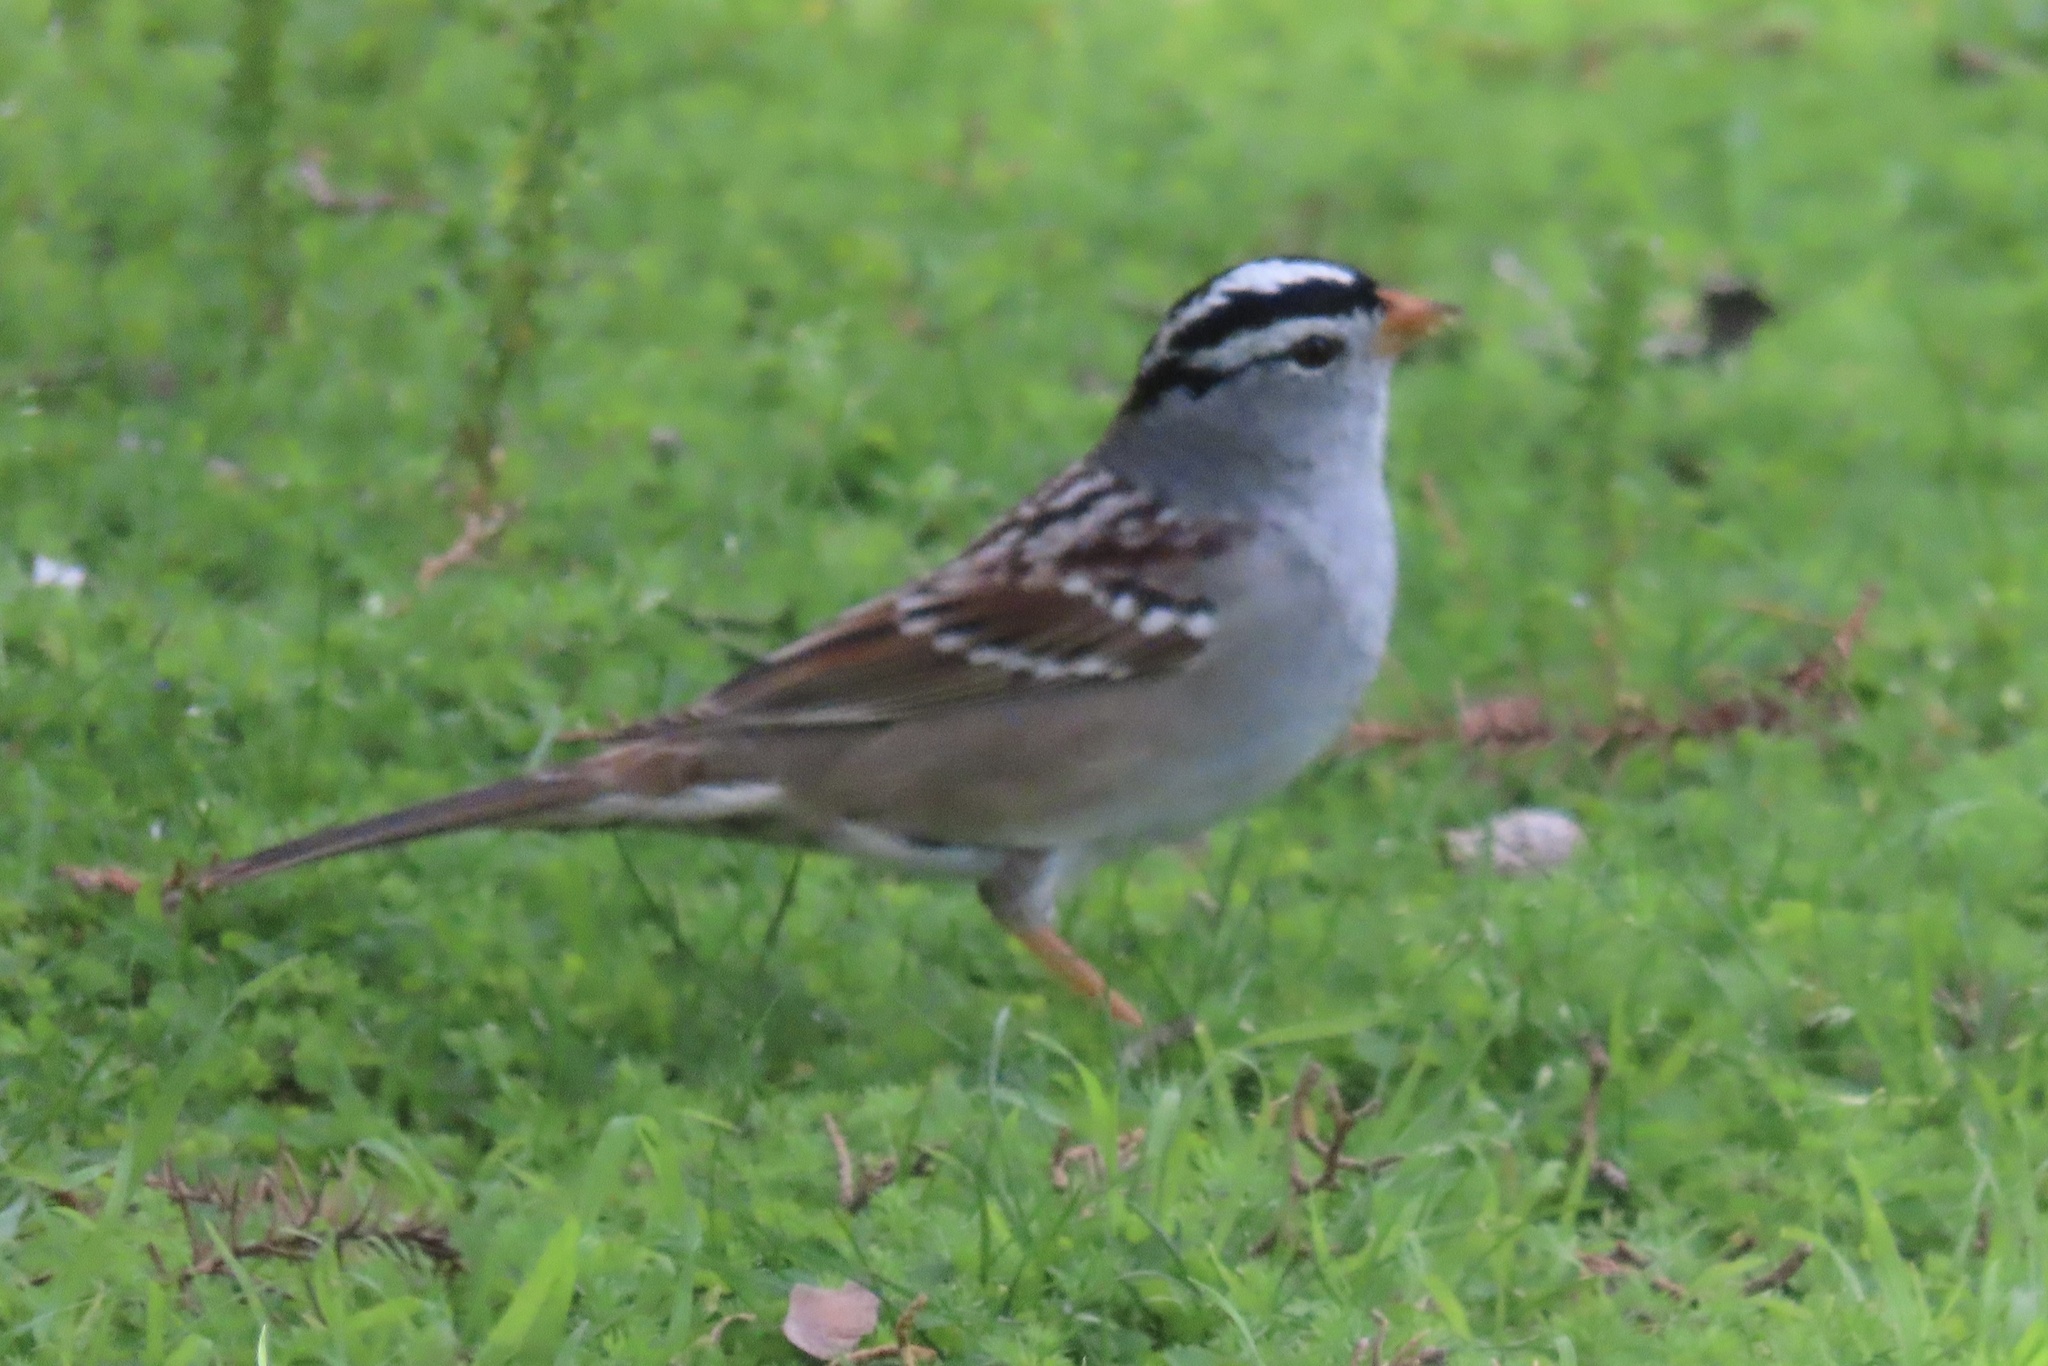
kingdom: Animalia
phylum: Chordata
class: Aves
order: Passeriformes
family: Passerellidae
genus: Zonotrichia
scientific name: Zonotrichia leucophrys
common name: White-crowned sparrow
